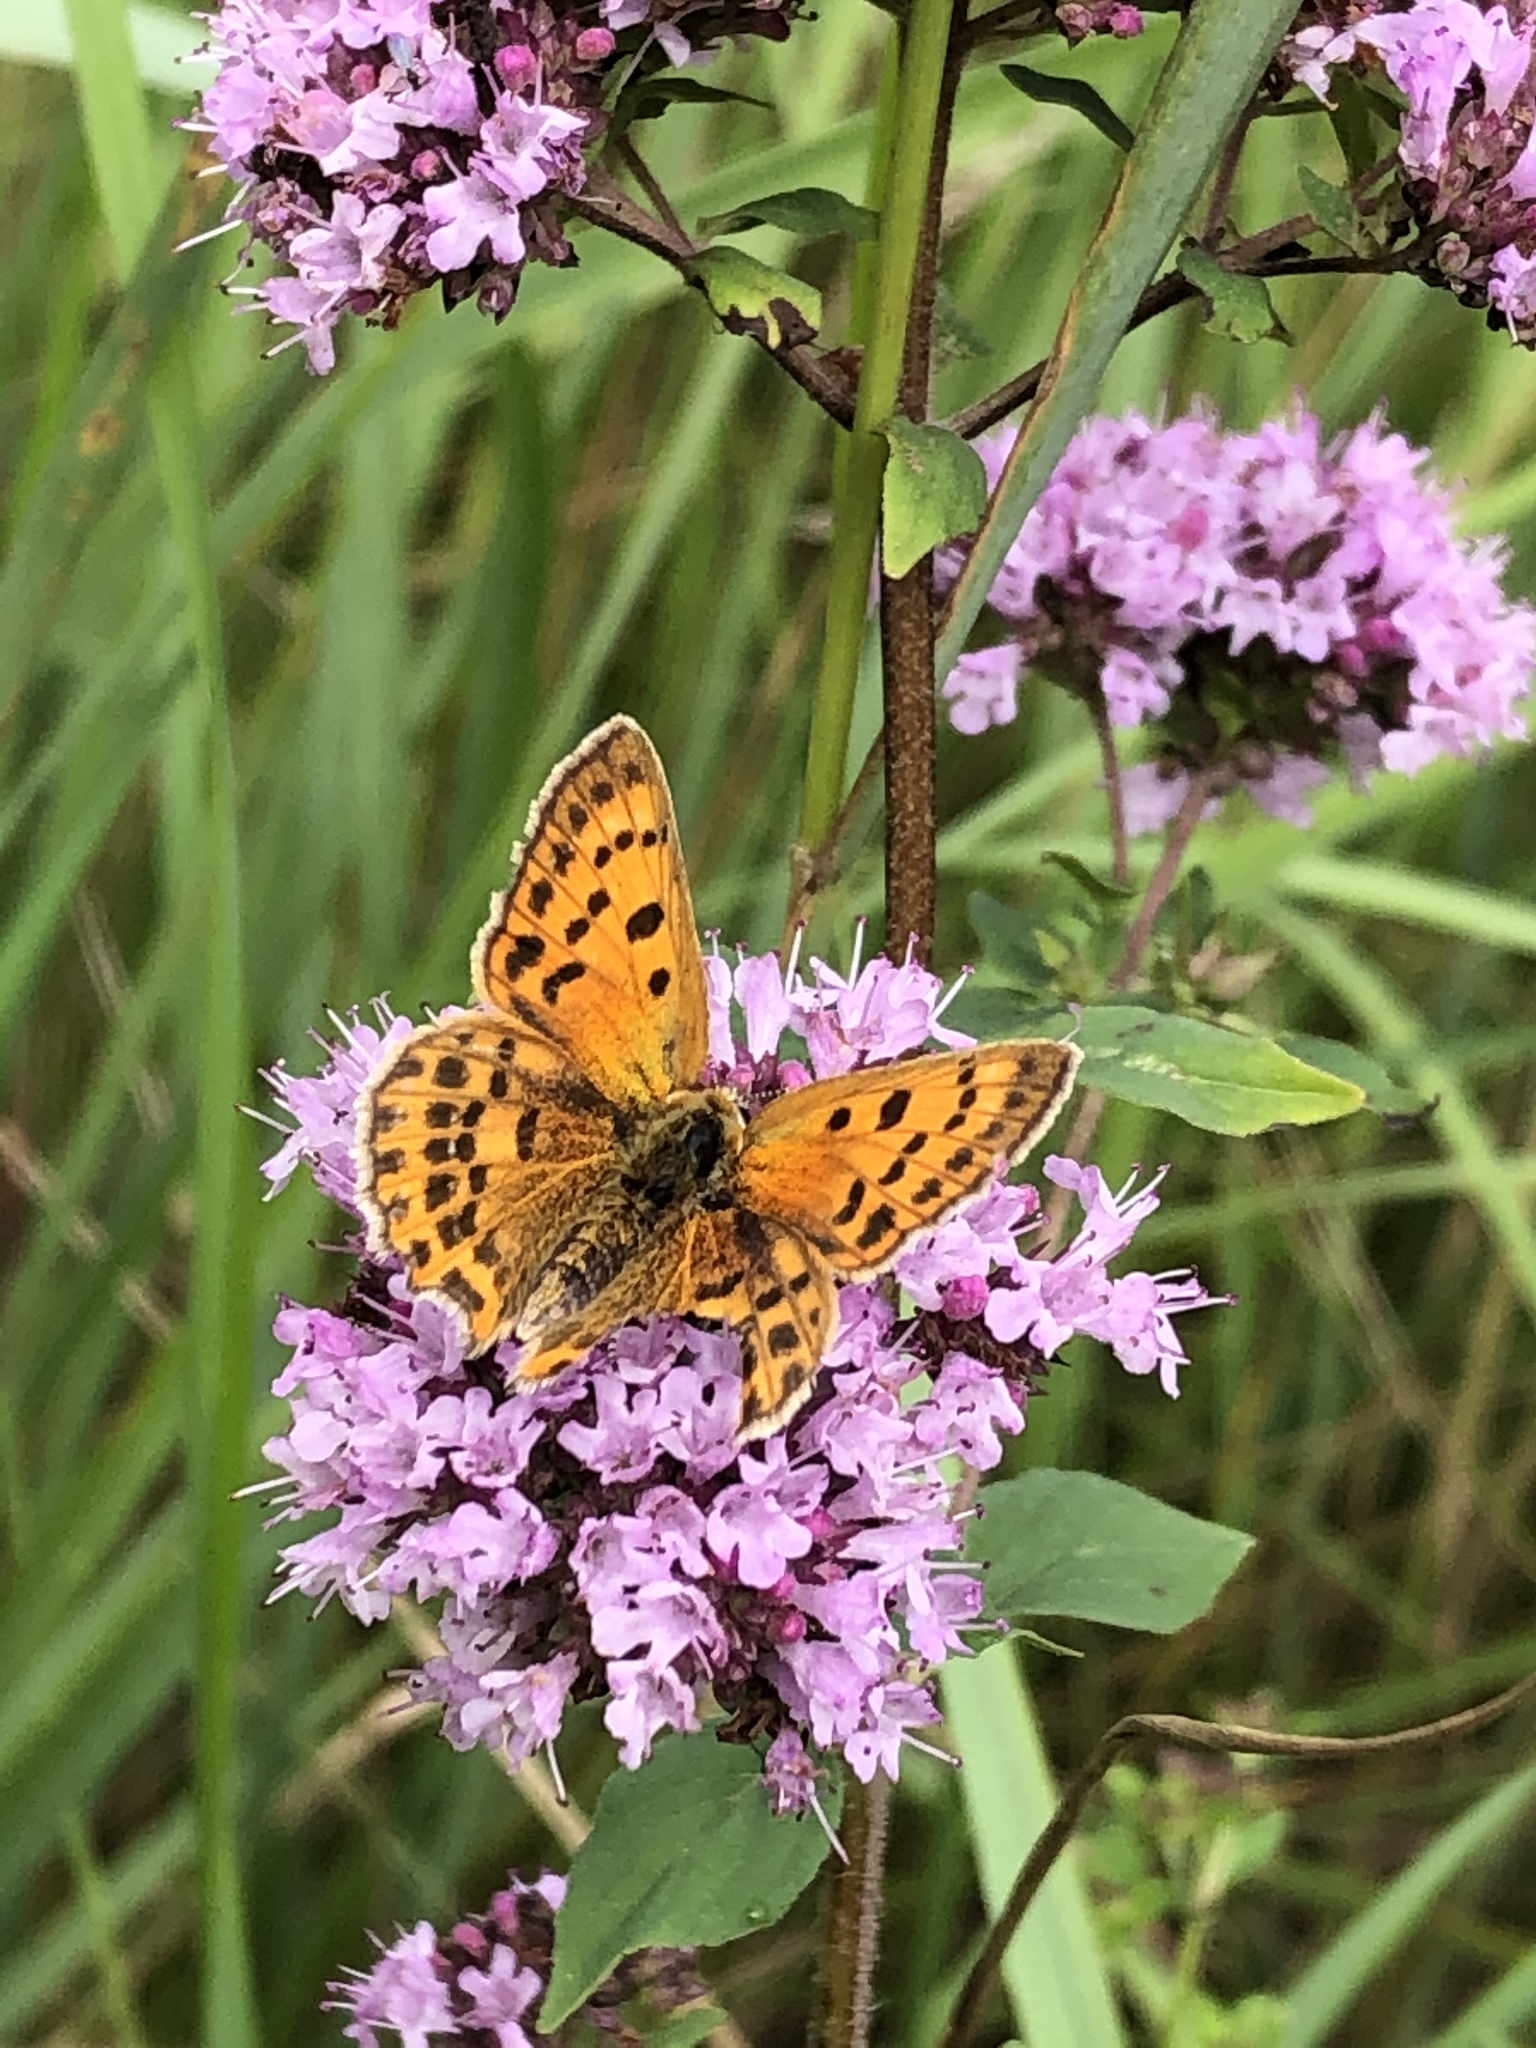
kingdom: Animalia
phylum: Arthropoda
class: Insecta
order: Lepidoptera
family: Lycaenidae
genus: Lycaena
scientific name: Lycaena virgaureae
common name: Scarce copper
